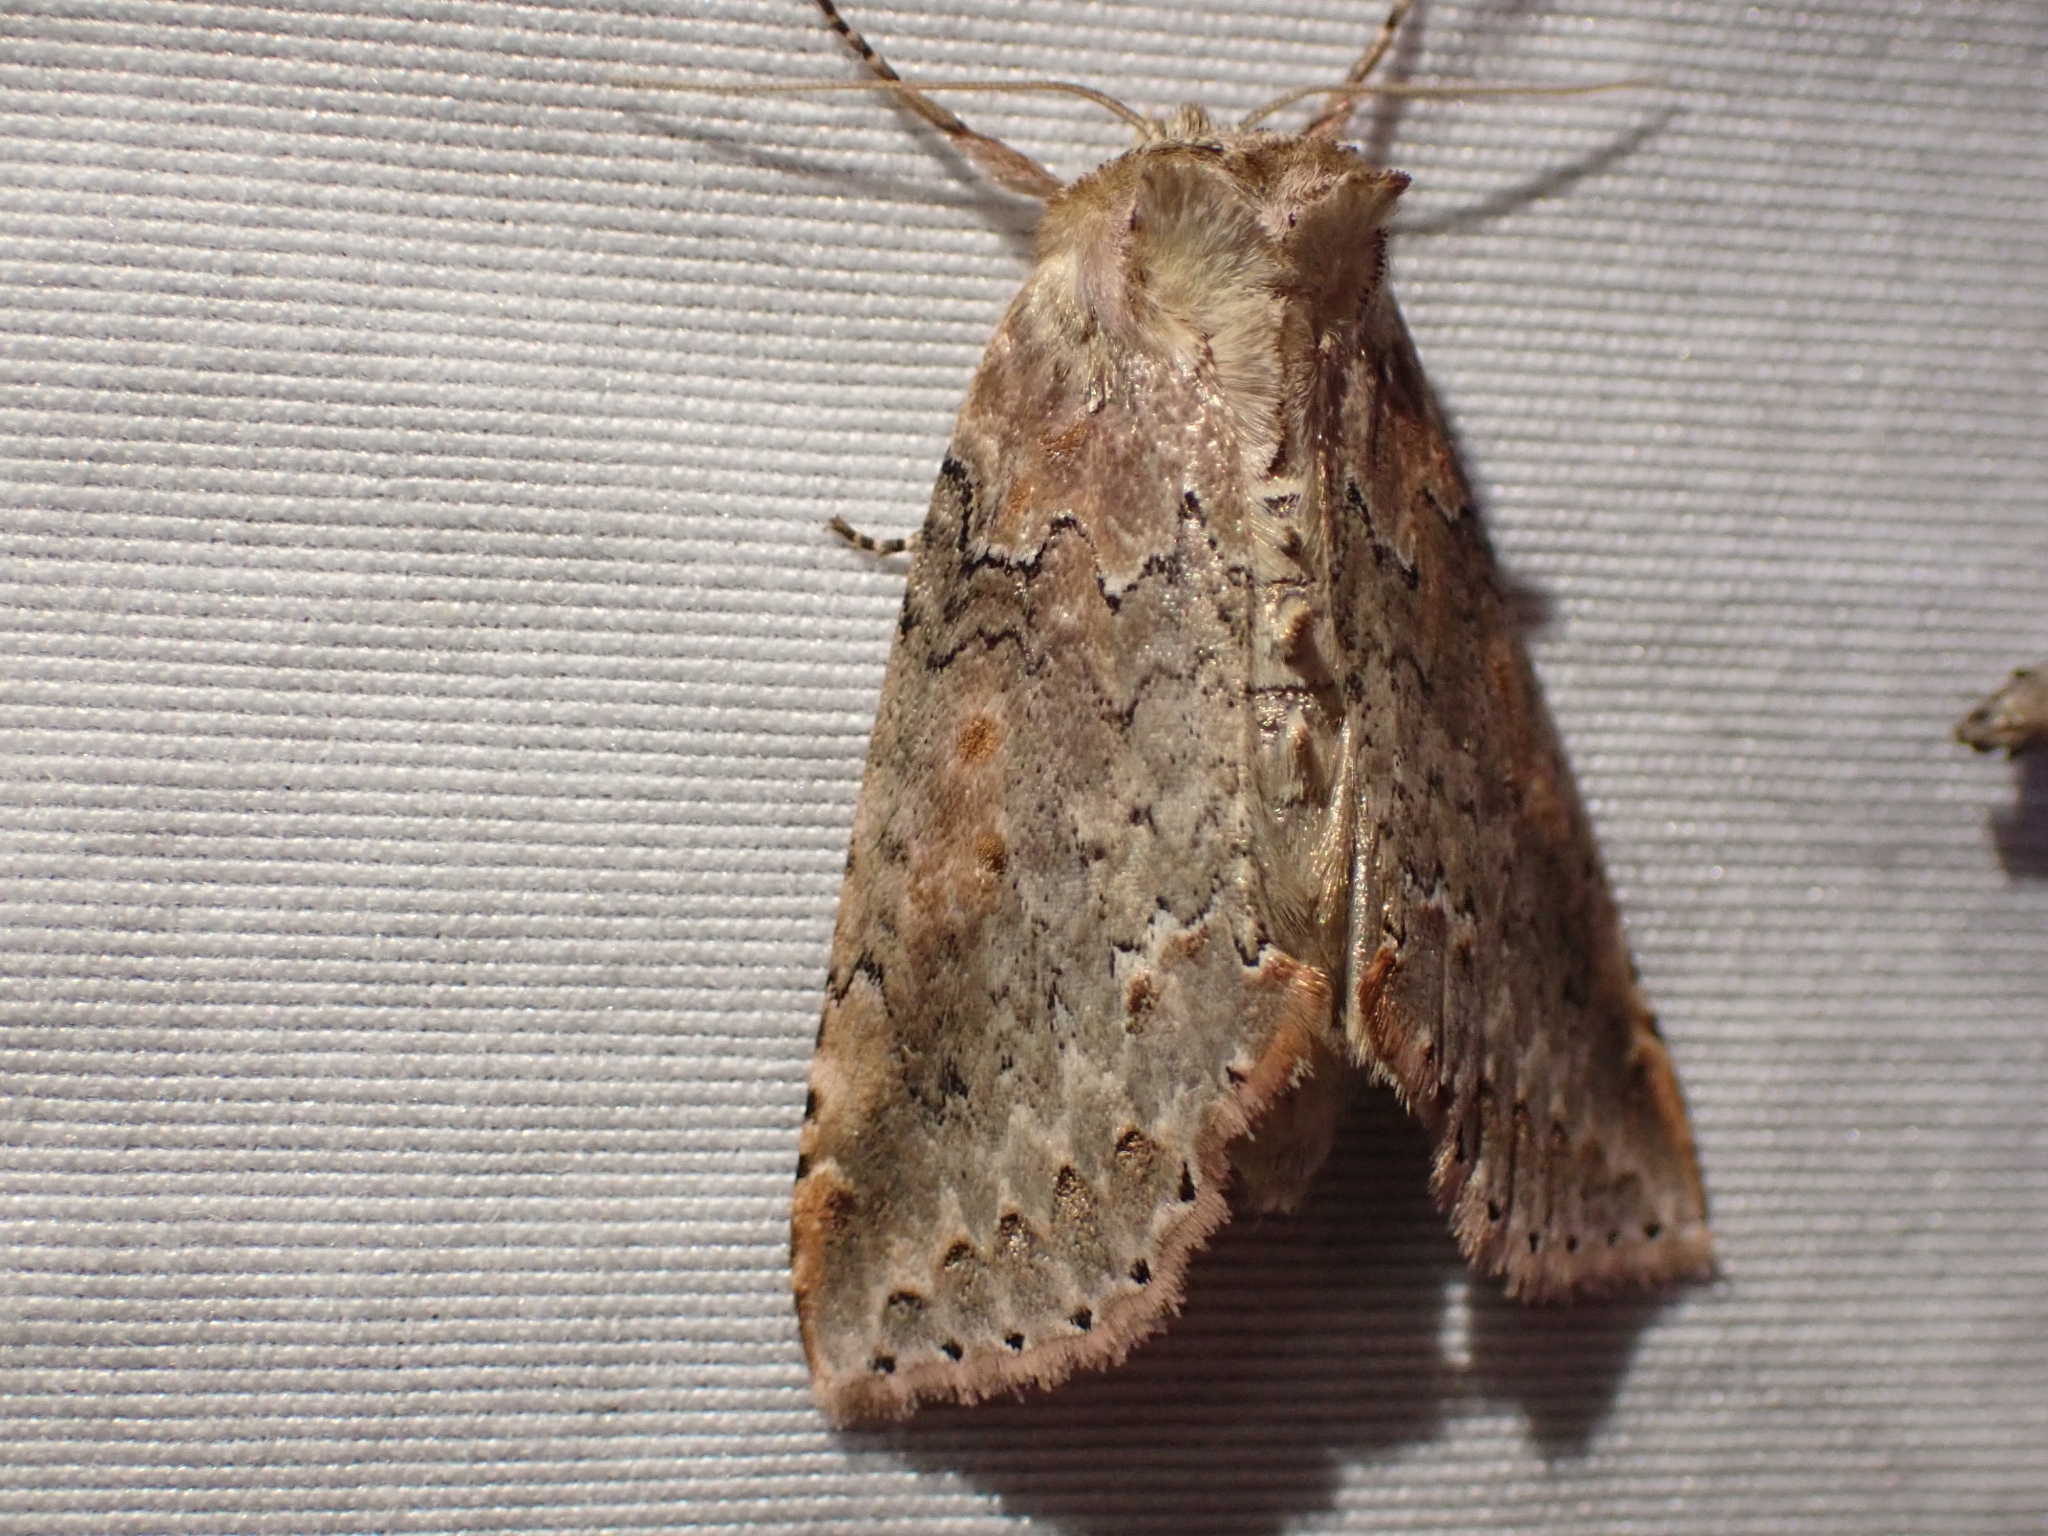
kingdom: Animalia
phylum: Arthropoda
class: Insecta
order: Lepidoptera
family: Drepanidae
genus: Pseudothyatira
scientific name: Pseudothyatira cymatophoroides
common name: Tufted thyatirid moth
